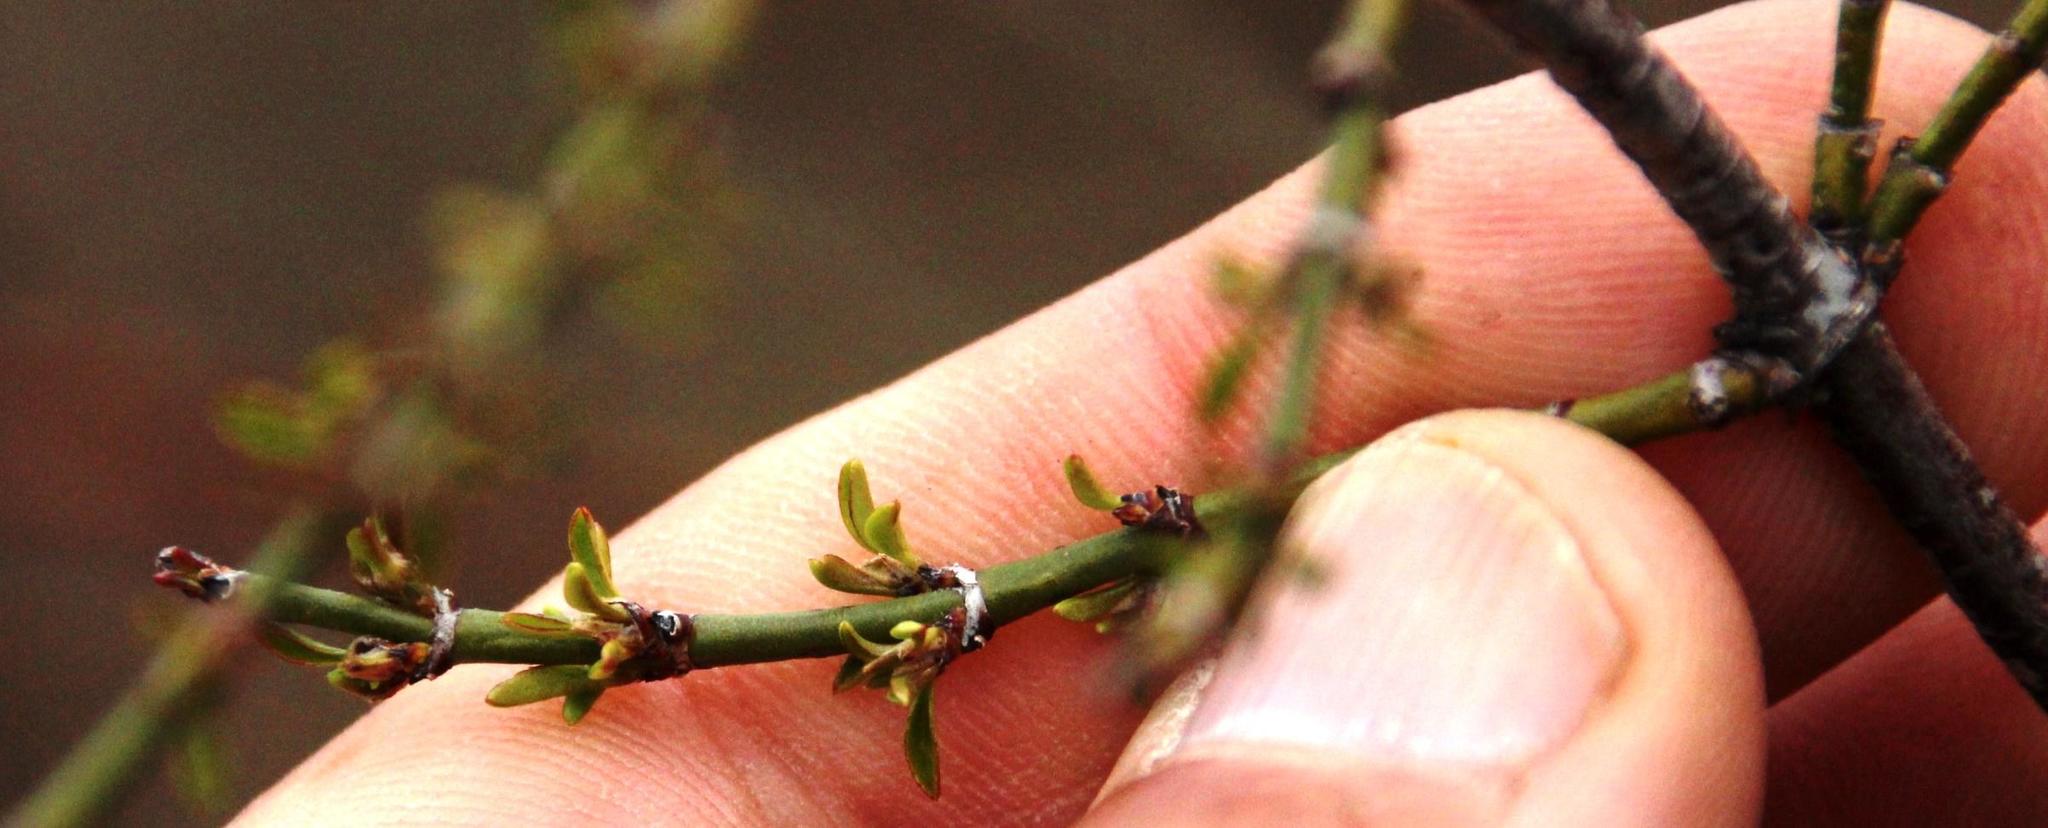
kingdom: Plantae
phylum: Tracheophyta
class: Magnoliopsida
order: Rosales
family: Rhamnaceae
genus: Discaria
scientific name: Discaria chacaye
